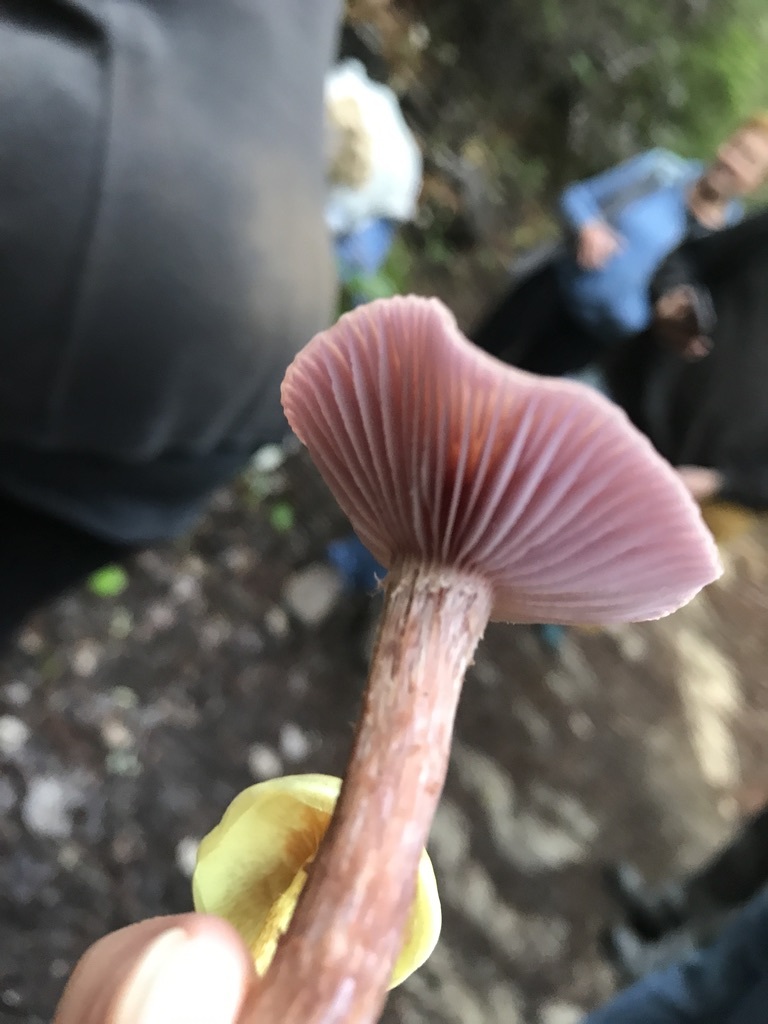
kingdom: Fungi
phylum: Basidiomycota
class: Agaricomycetes
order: Agaricales
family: Hydnangiaceae
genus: Laccaria
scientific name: Laccaria amethysteo-occidentalis
